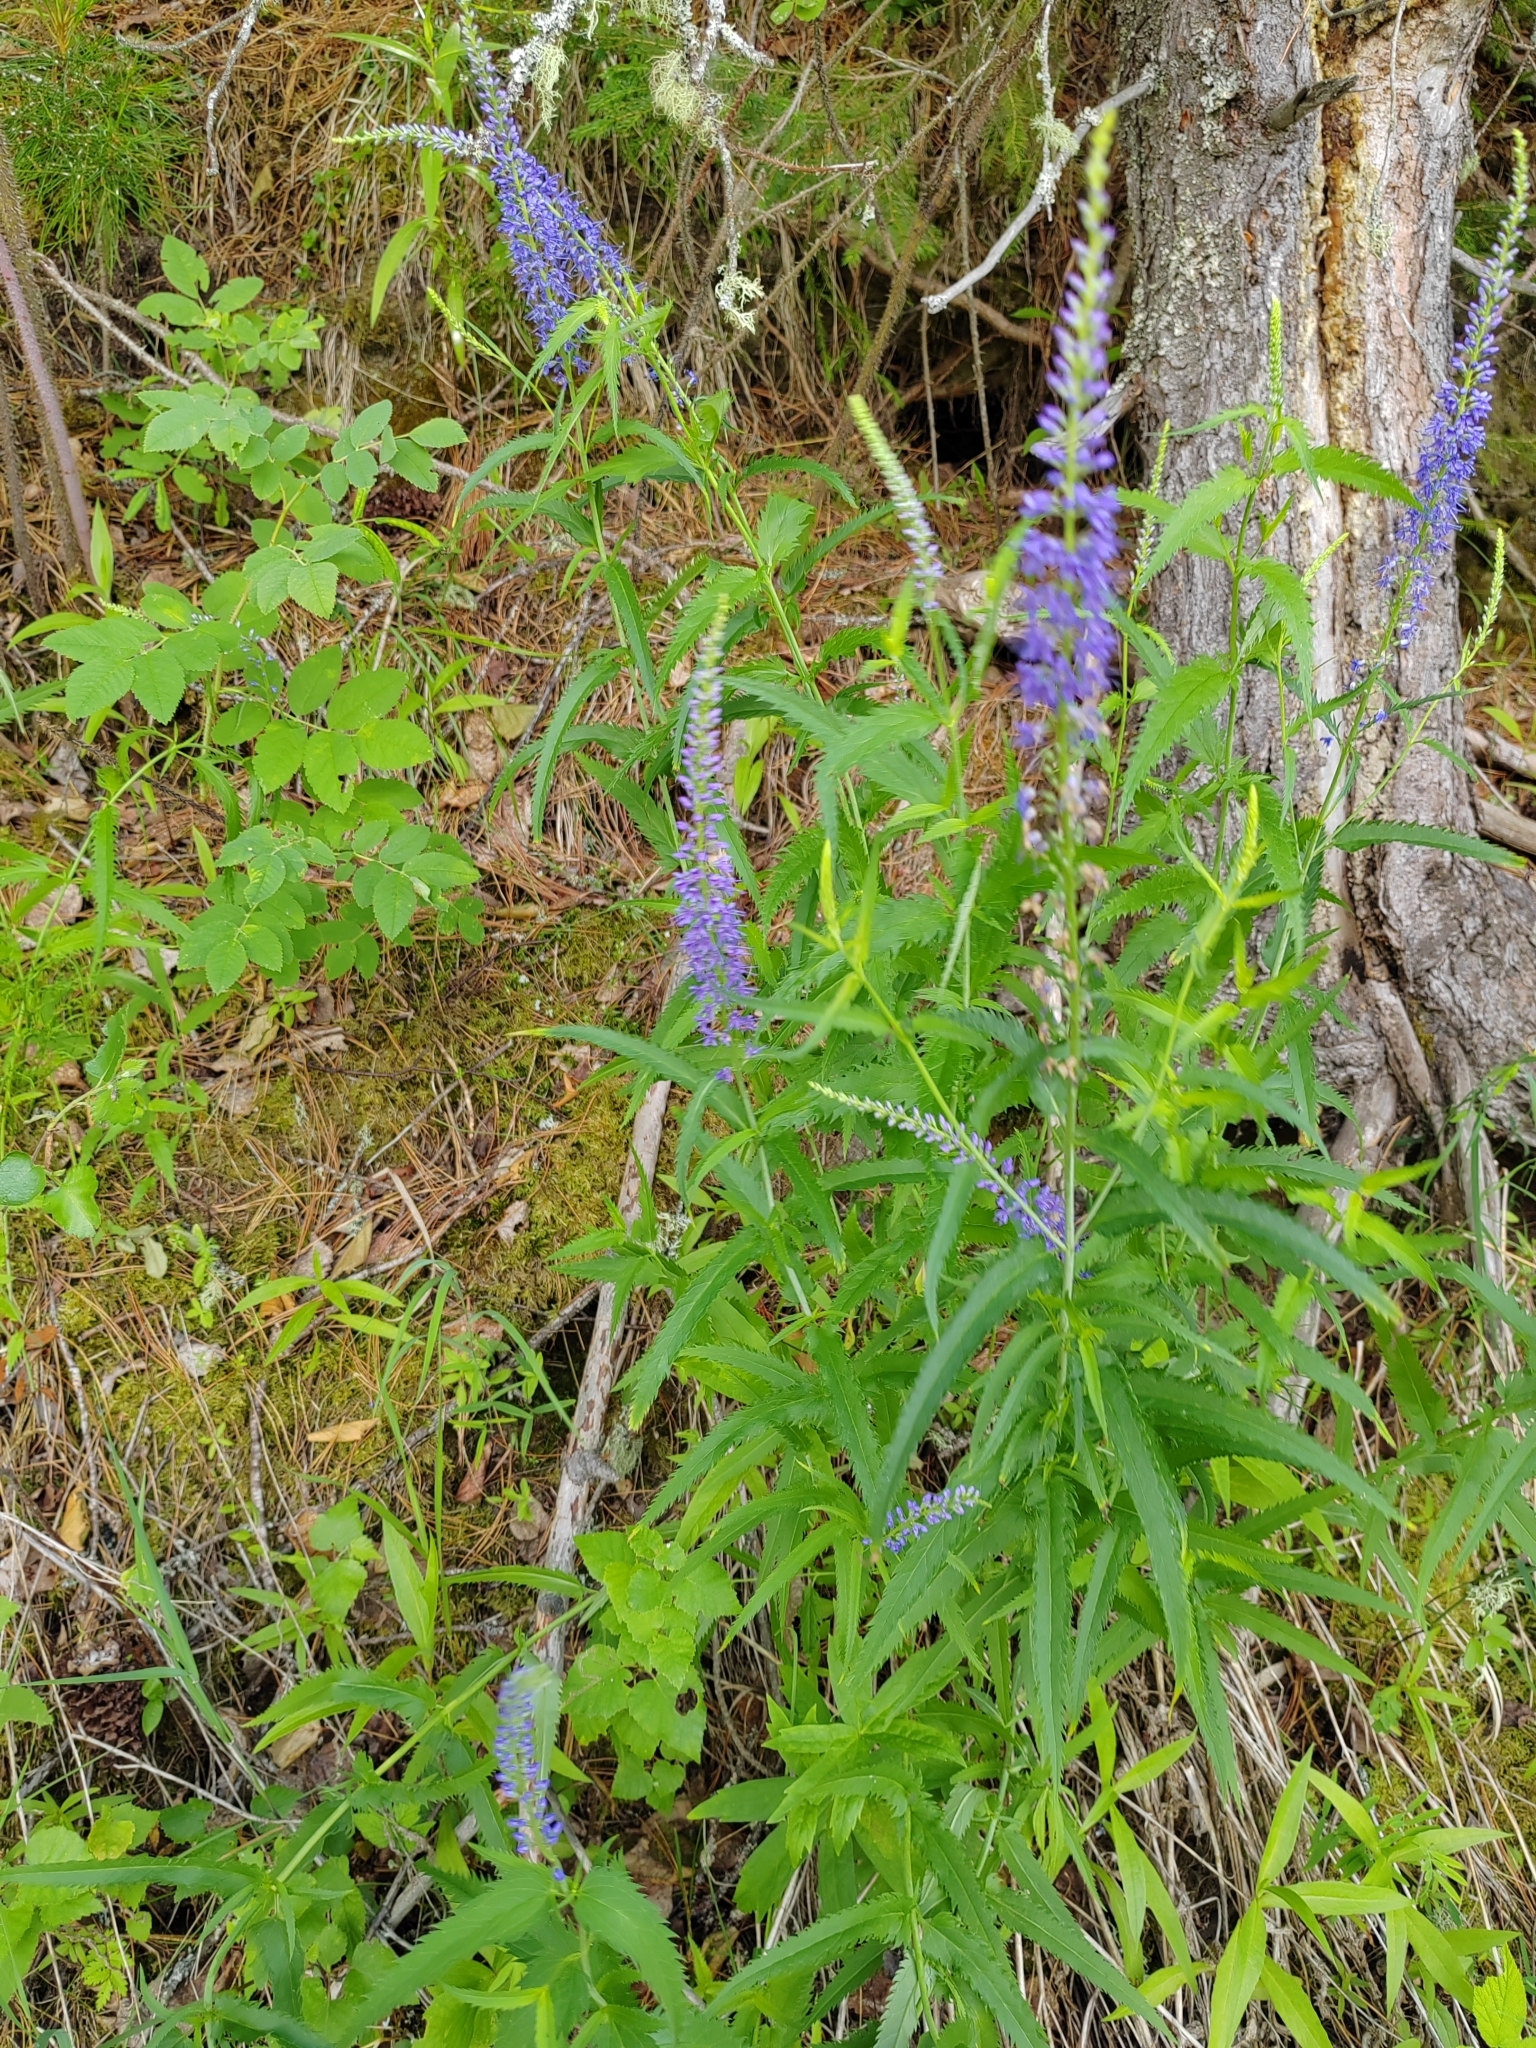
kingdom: Plantae
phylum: Tracheophyta
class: Magnoliopsida
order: Lamiales
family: Plantaginaceae
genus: Veronica
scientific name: Veronica longifolia
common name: Garden speedwell
